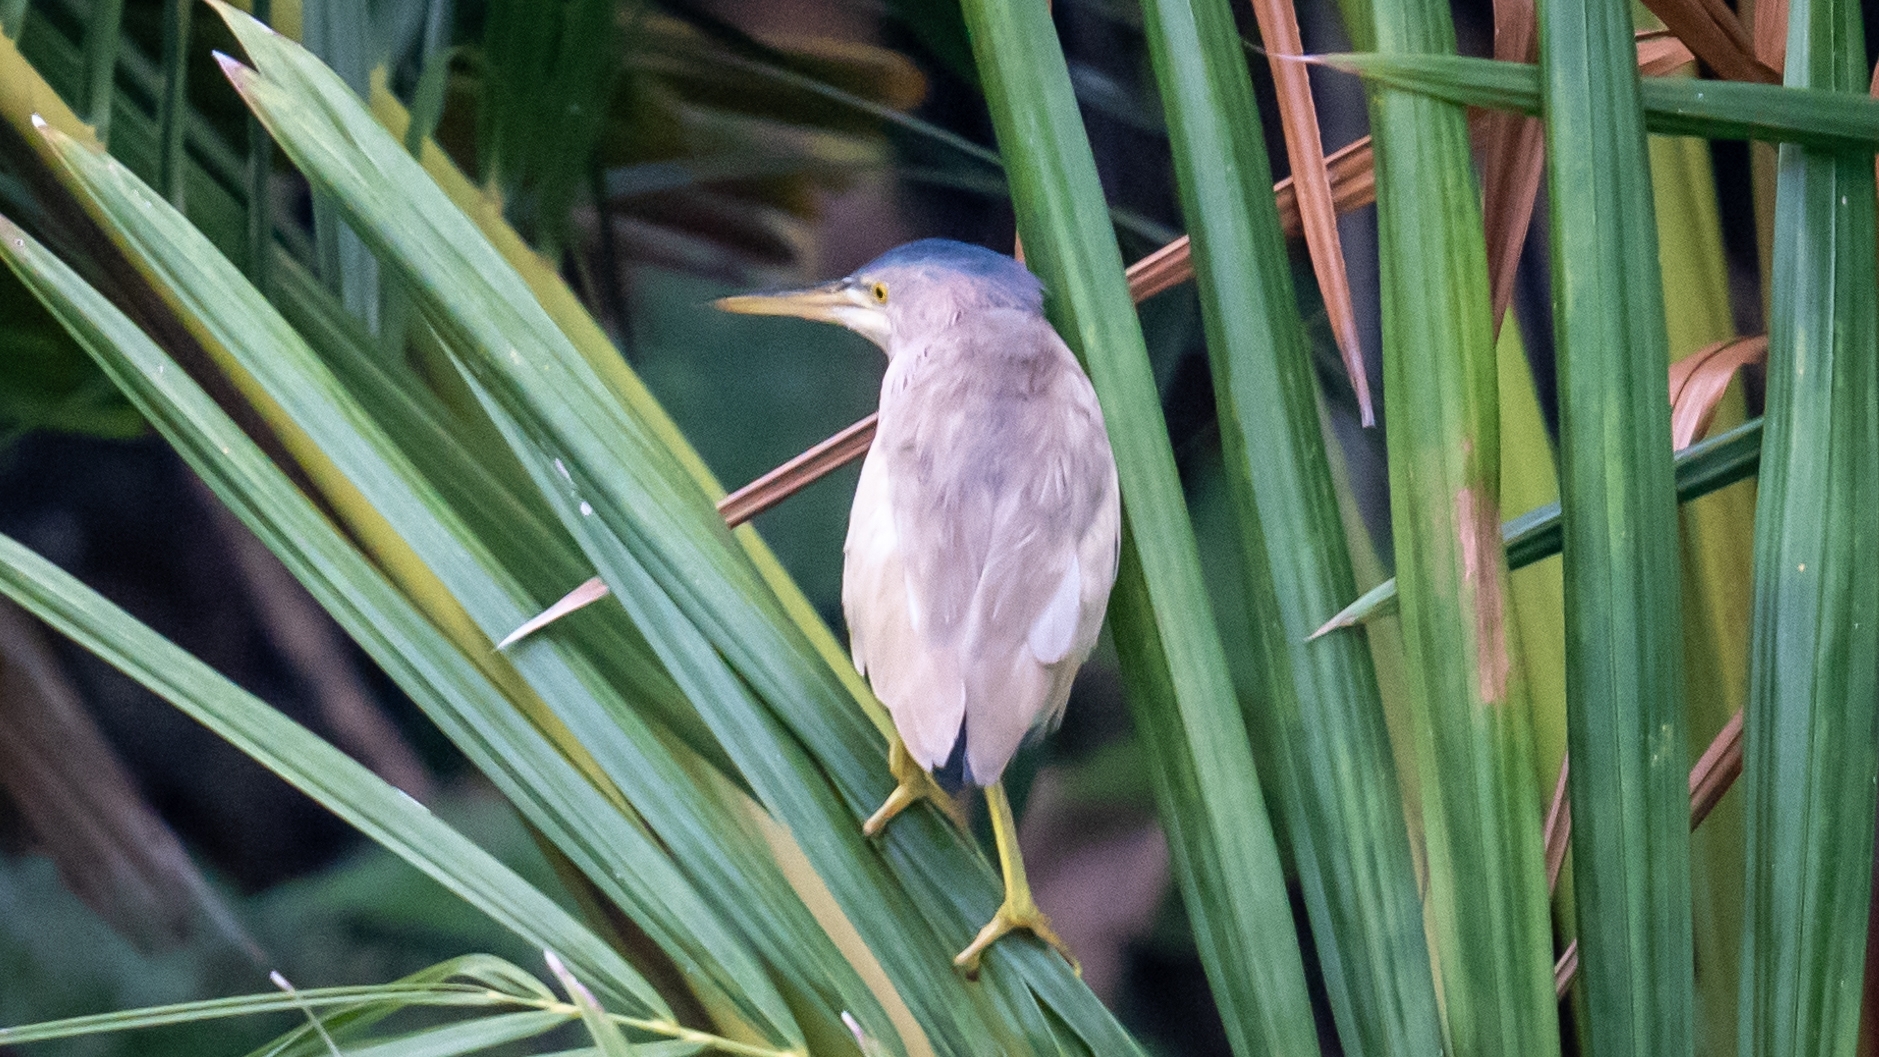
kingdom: Animalia
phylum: Chordata
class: Aves
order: Pelecaniformes
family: Ardeidae
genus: Ixobrychus
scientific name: Ixobrychus sinensis
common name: Yellow bittern
